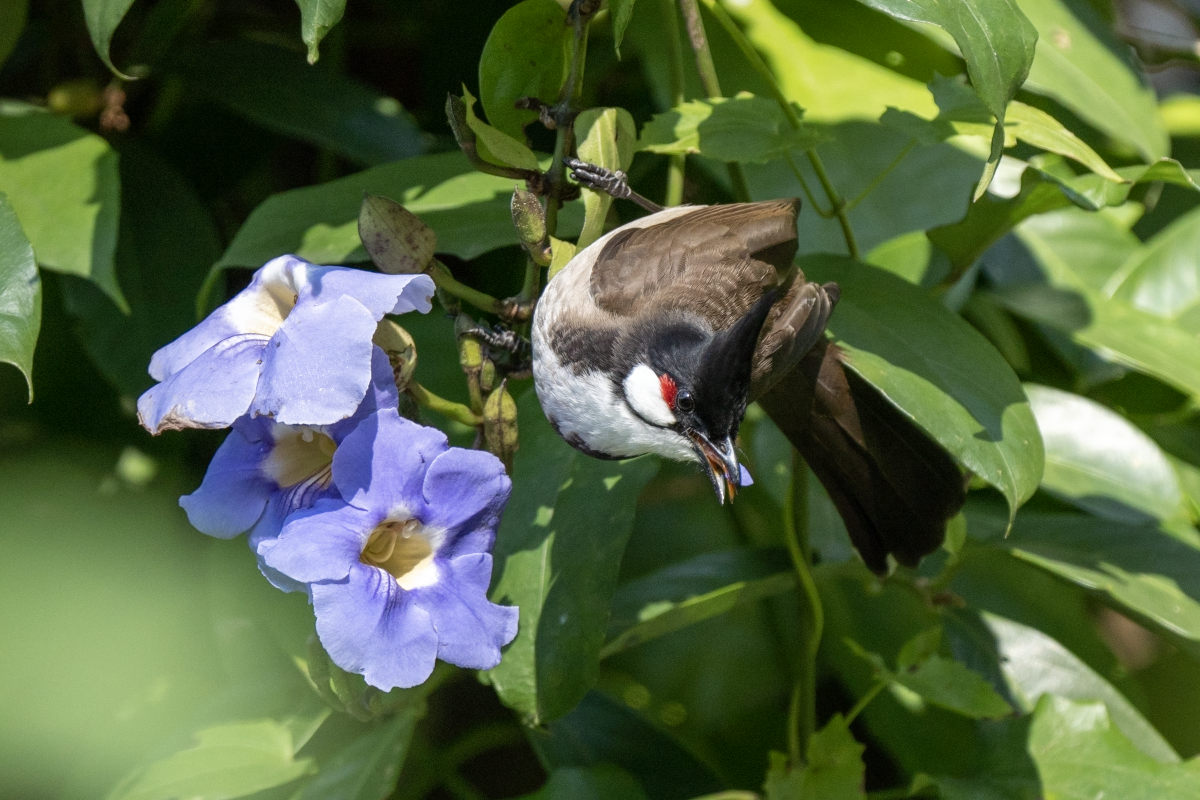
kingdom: Animalia
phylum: Chordata
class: Aves
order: Passeriformes
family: Pycnonotidae
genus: Pycnonotus
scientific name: Pycnonotus jocosus
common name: Red-whiskered bulbul
